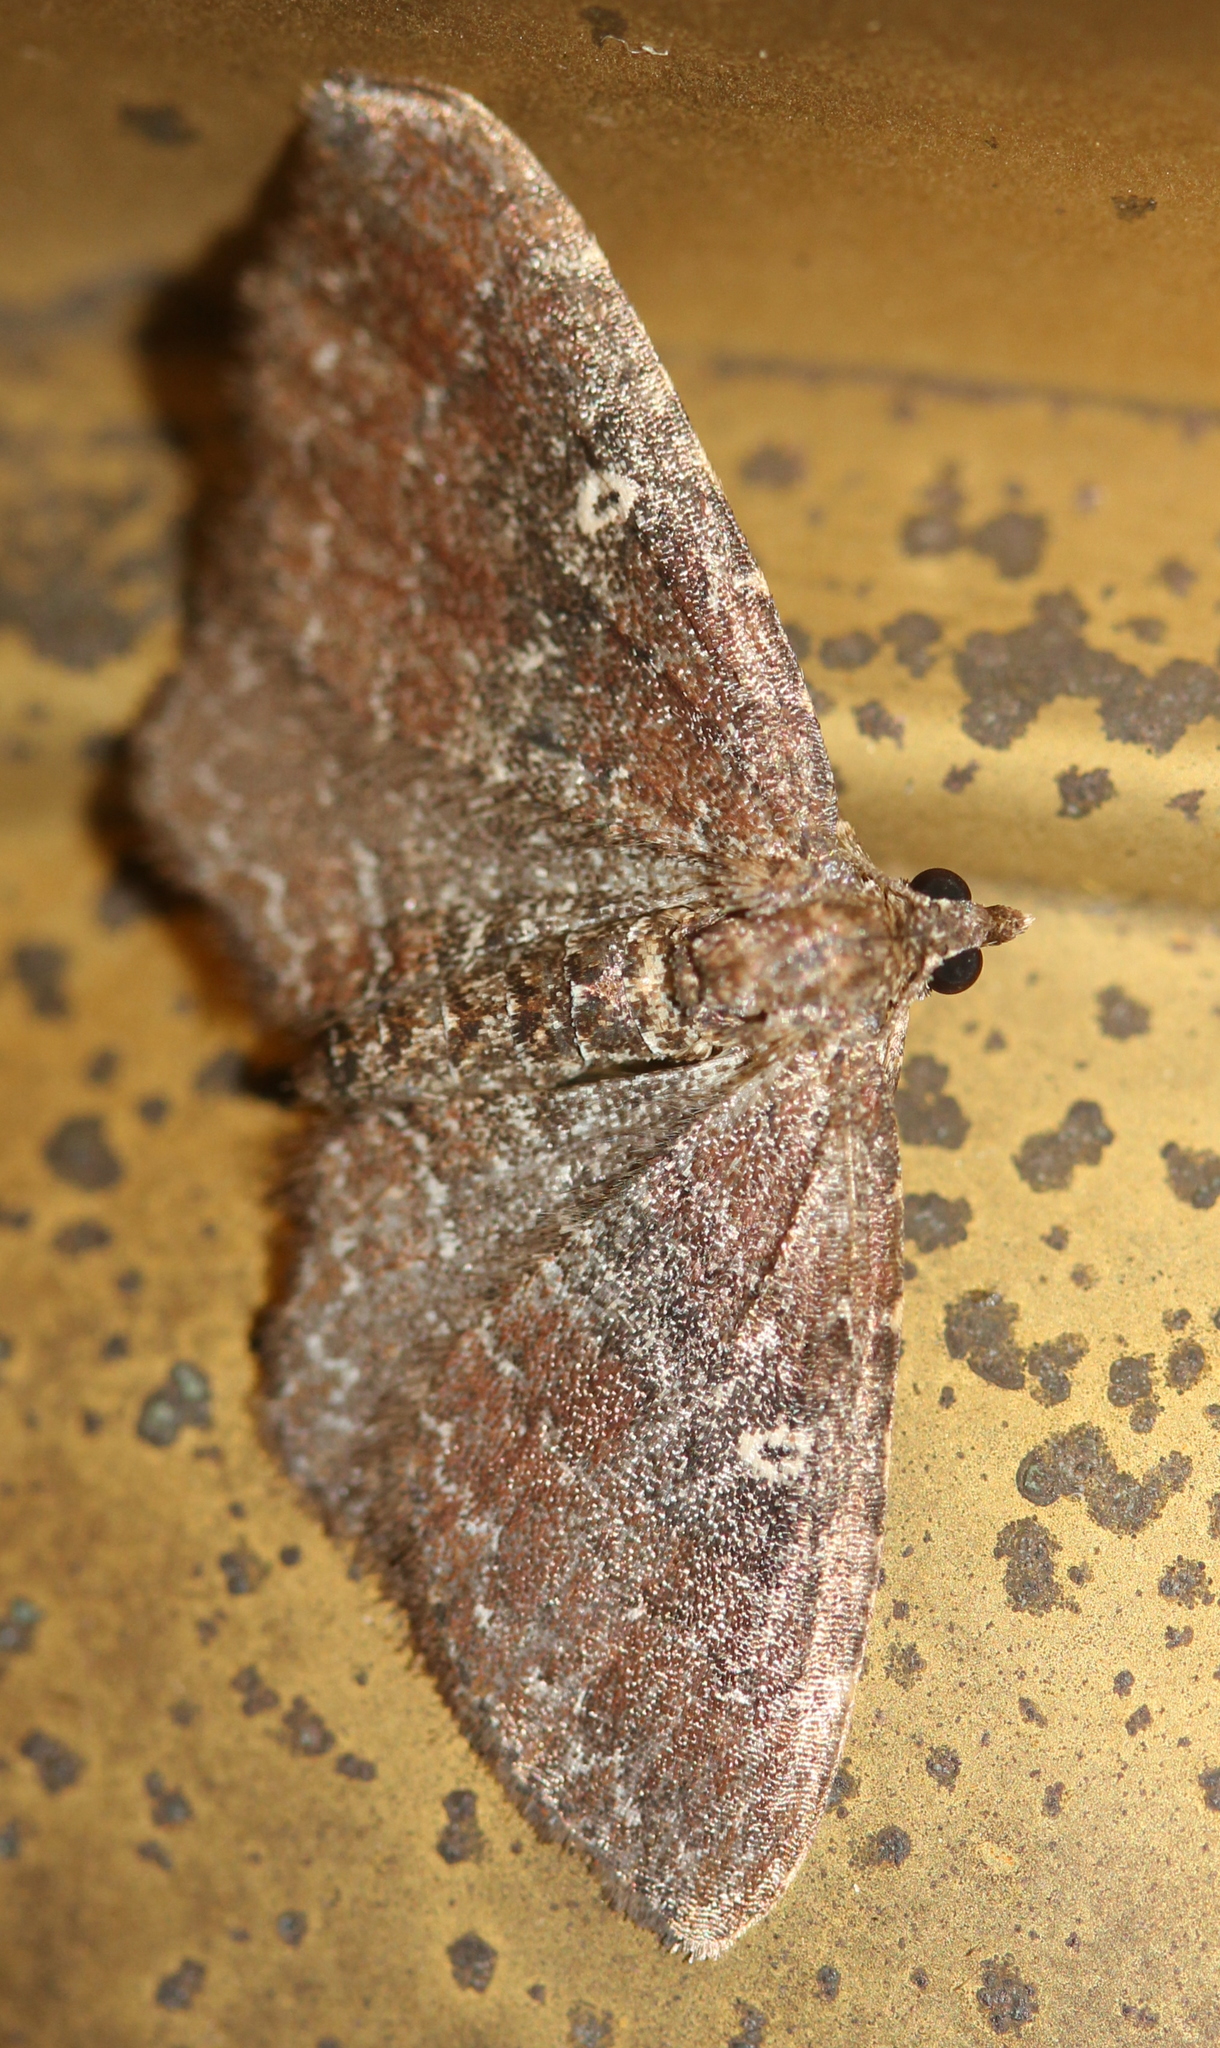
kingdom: Animalia
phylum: Arthropoda
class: Insecta
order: Lepidoptera
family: Geometridae
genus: Orthonama
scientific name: Orthonama obstipata
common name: The gem
